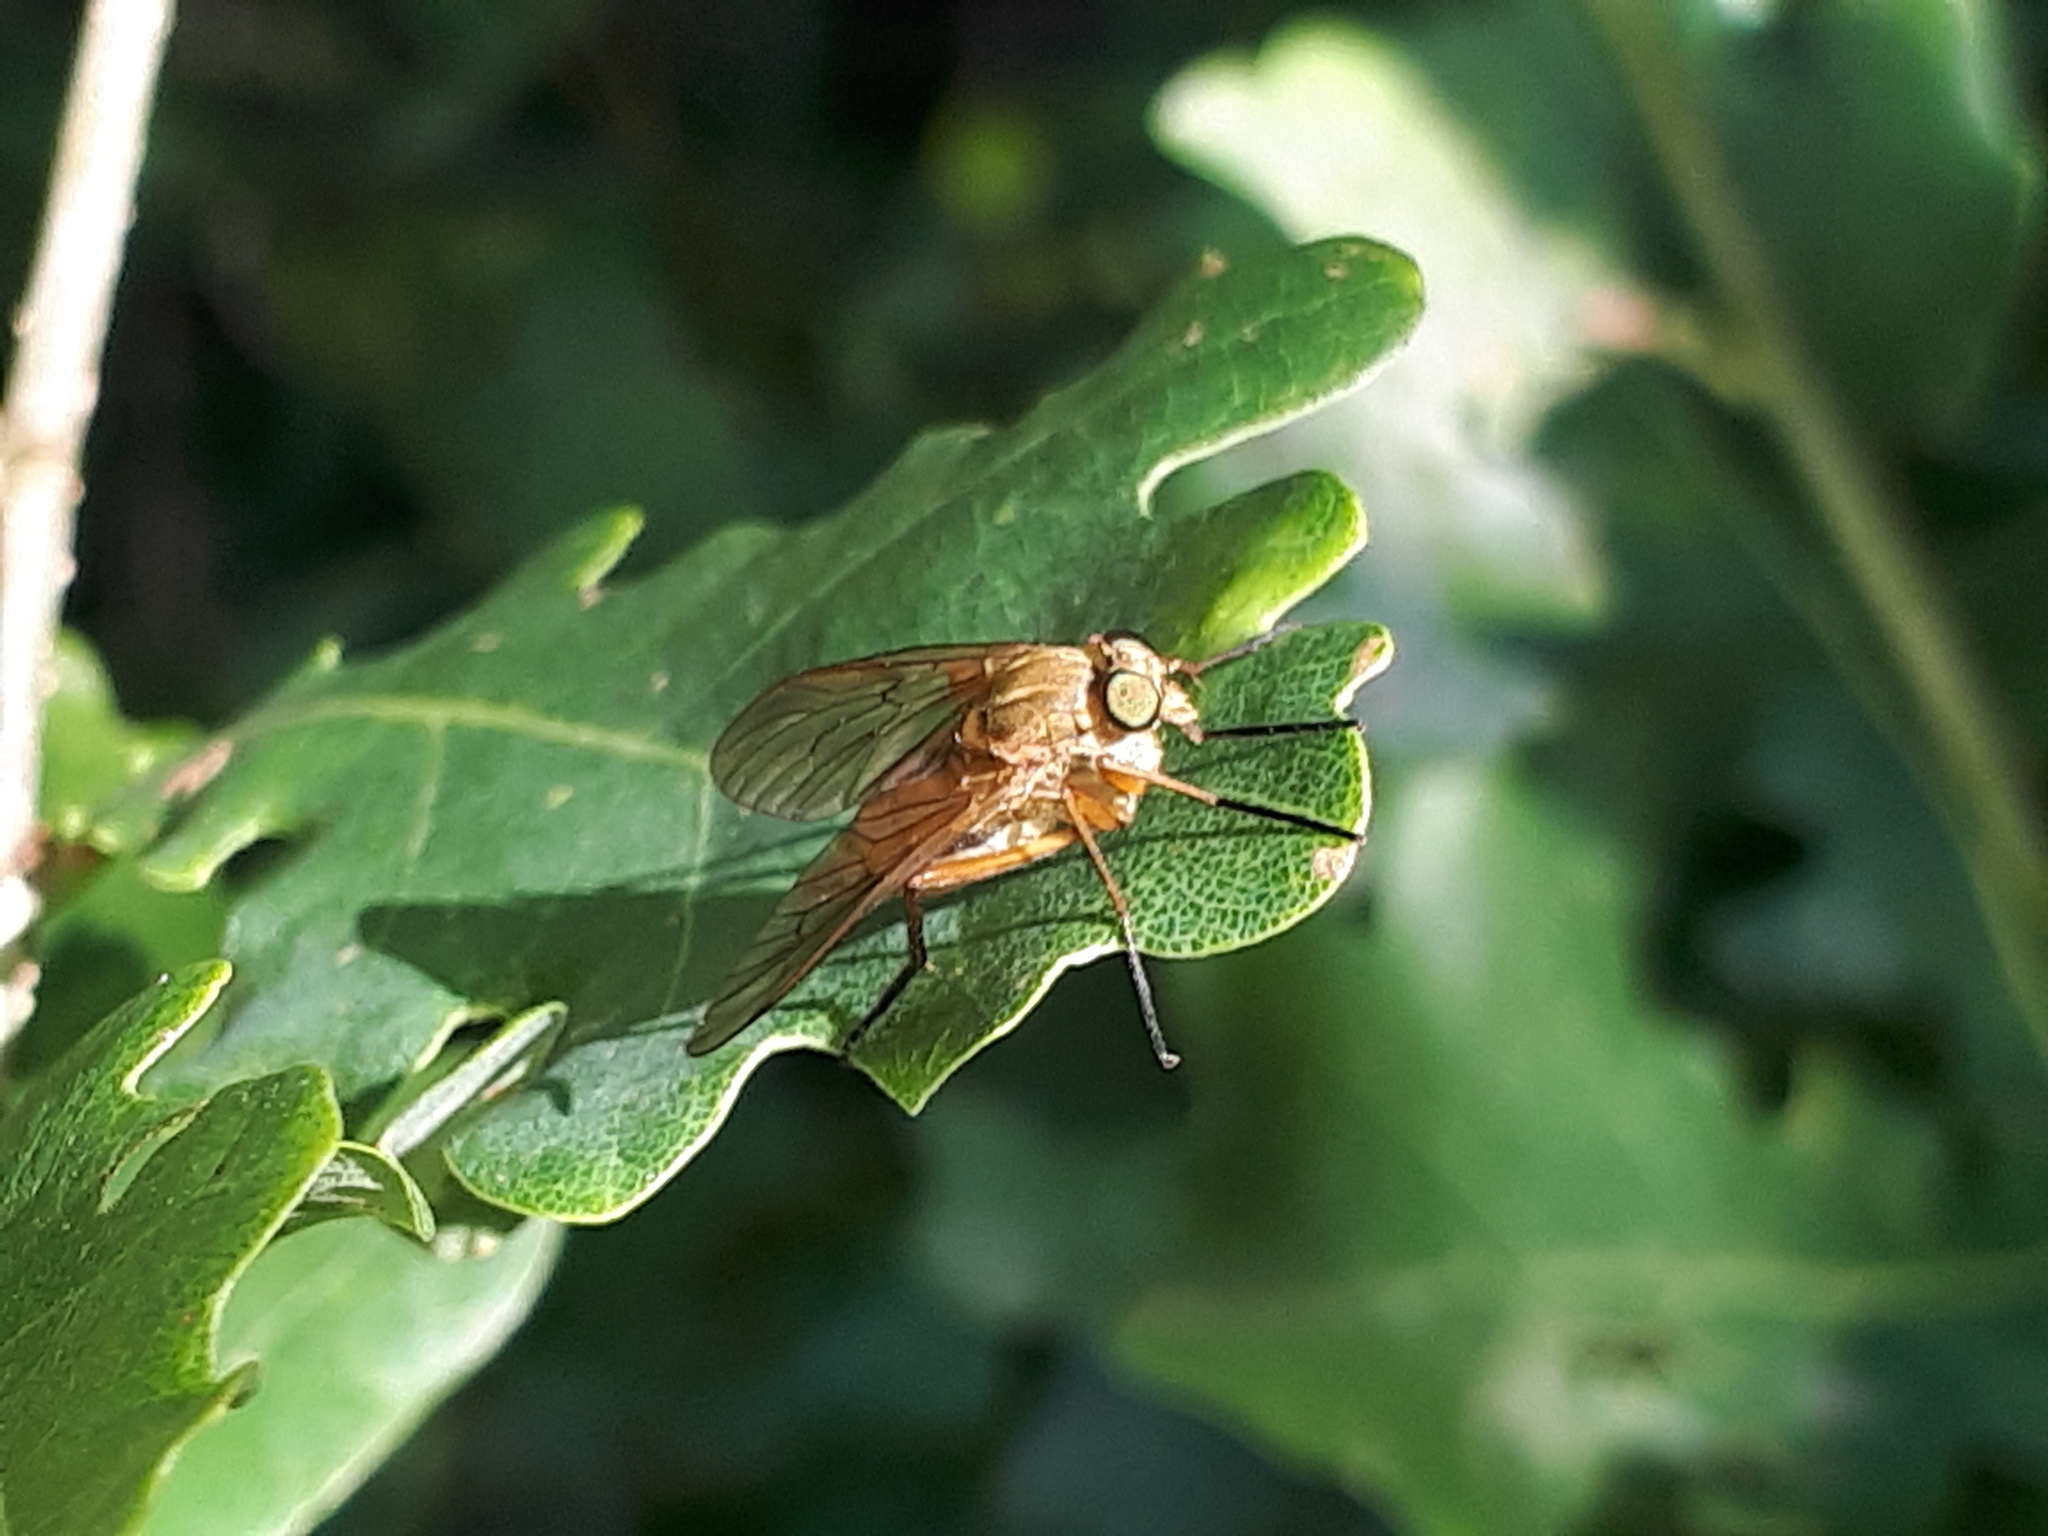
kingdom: Animalia
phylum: Arthropoda
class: Insecta
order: Diptera
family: Rhagionidae
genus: Rhagio
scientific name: Rhagio tringaria
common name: Marsh snipefly
